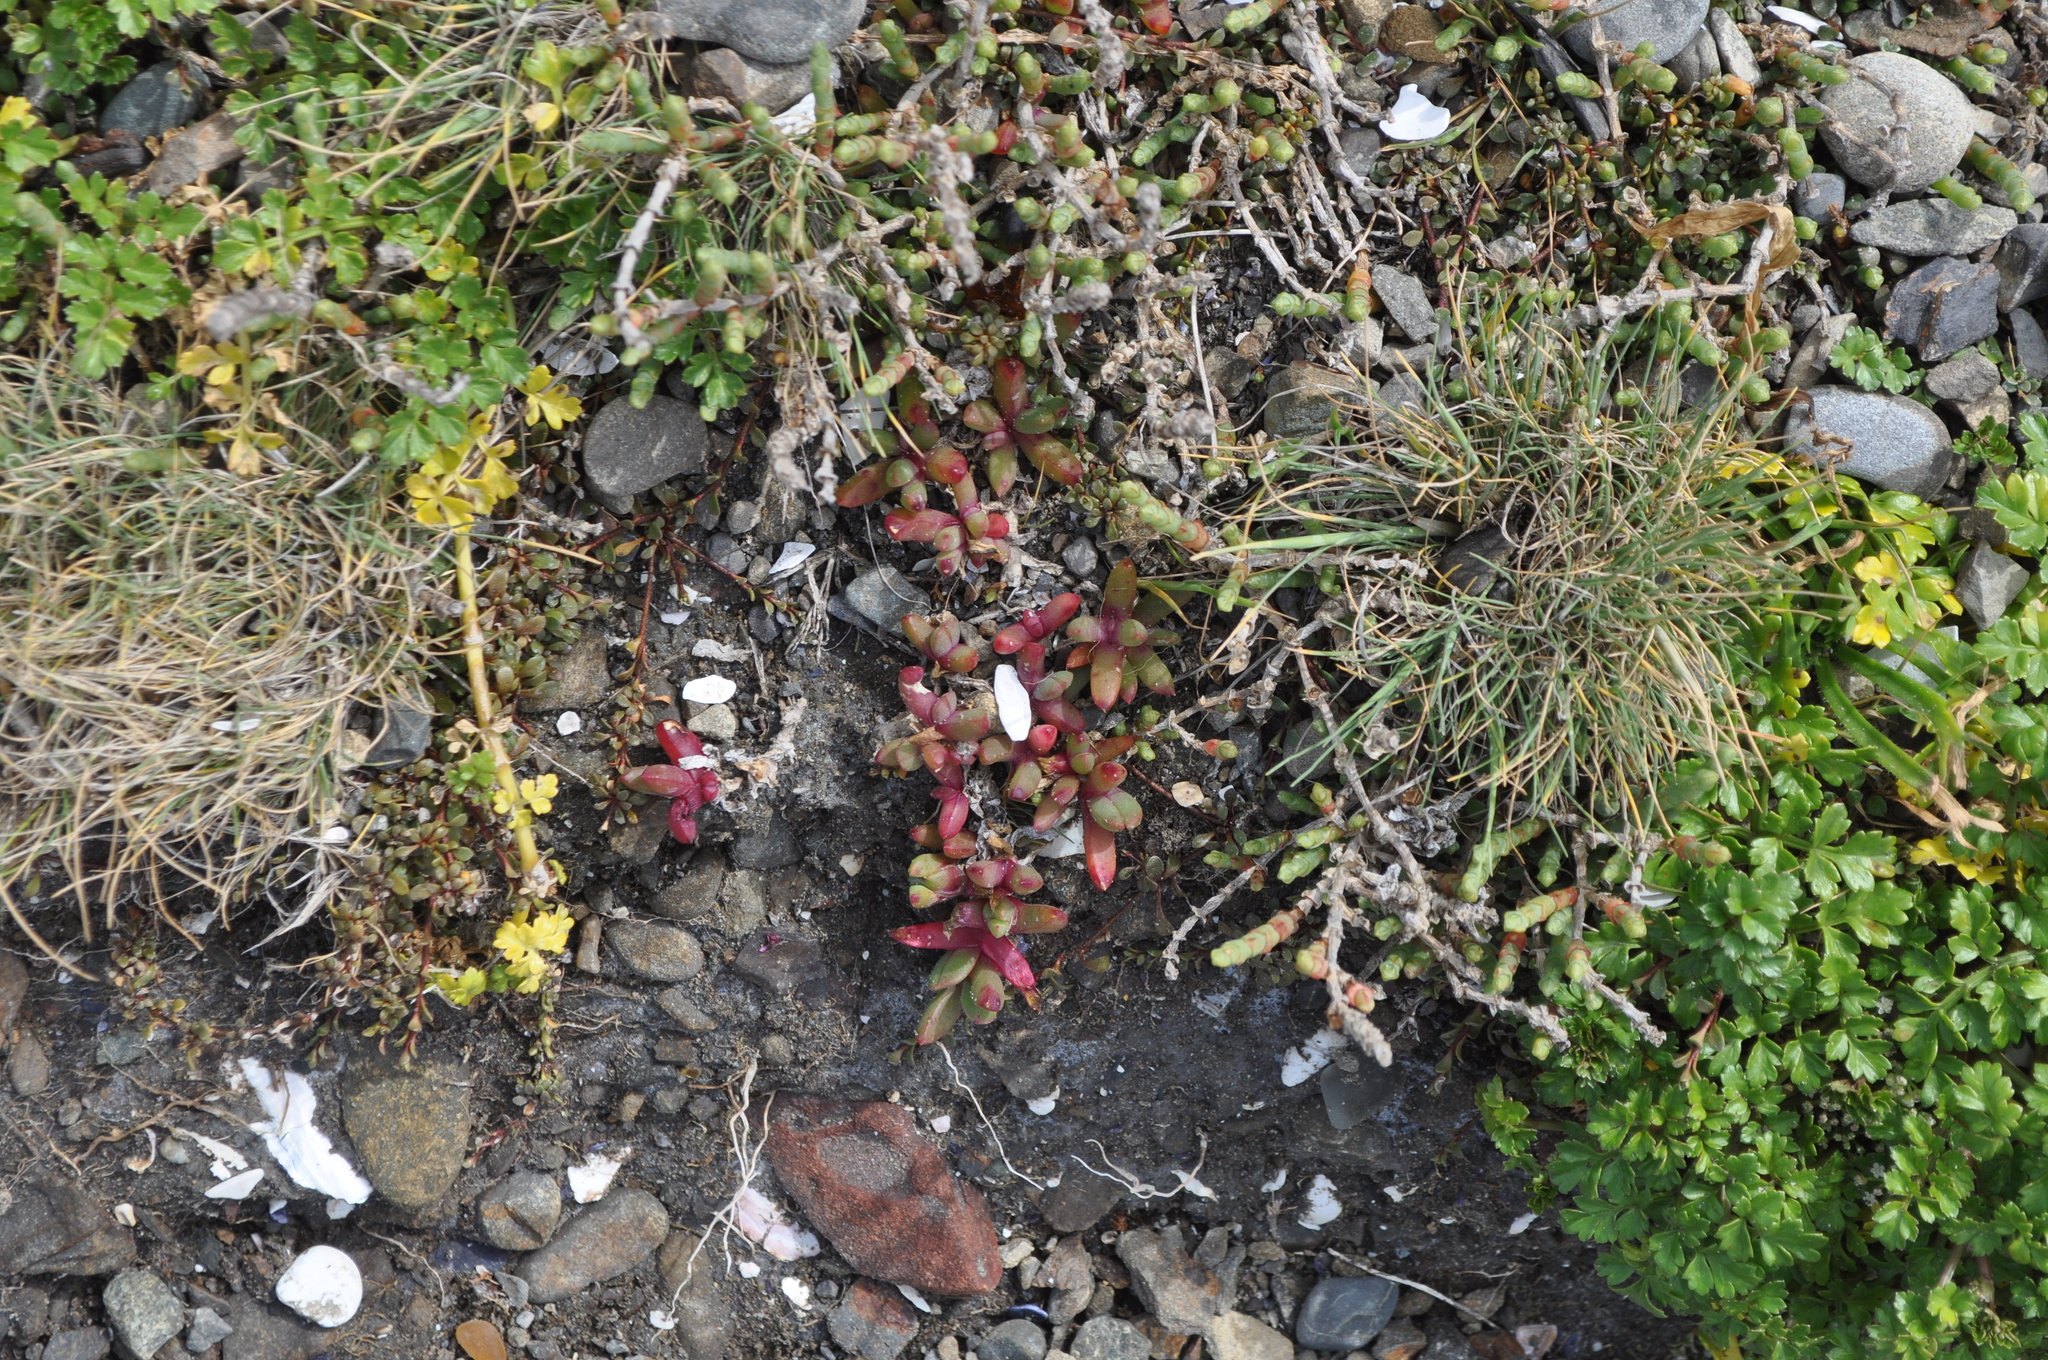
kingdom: Plantae
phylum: Tracheophyta
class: Magnoliopsida
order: Caryophyllales
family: Aizoaceae
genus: Disphyma
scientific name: Disphyma australe
